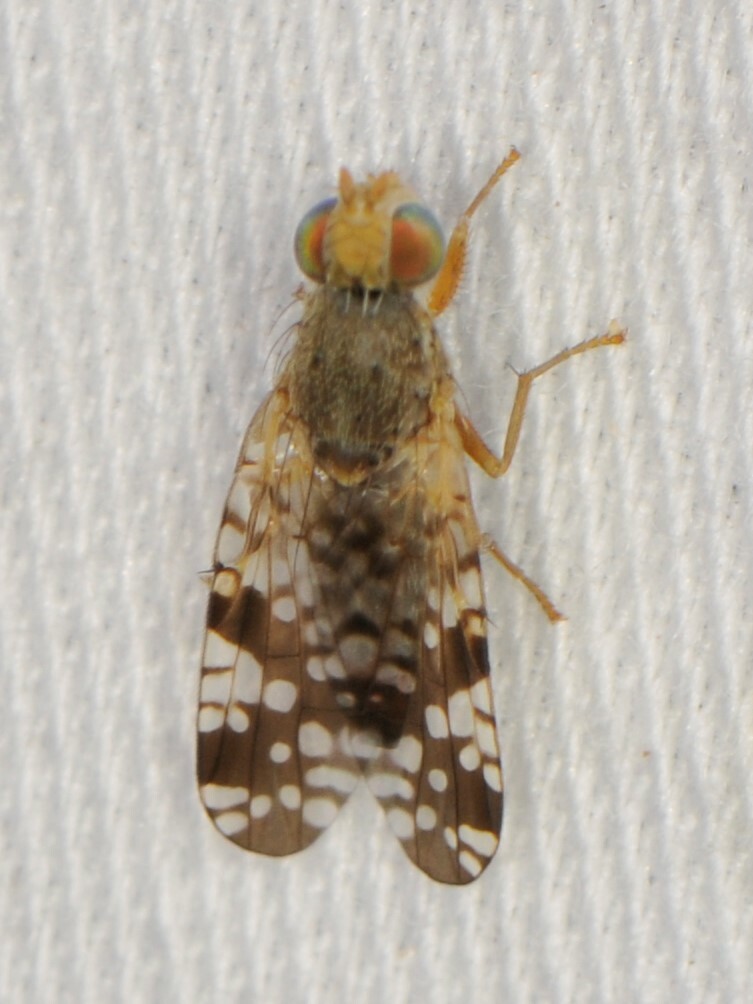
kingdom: Animalia
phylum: Arthropoda
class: Insecta
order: Diptera
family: Tephritidae
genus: Neotephritis
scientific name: Neotephritis finalis
